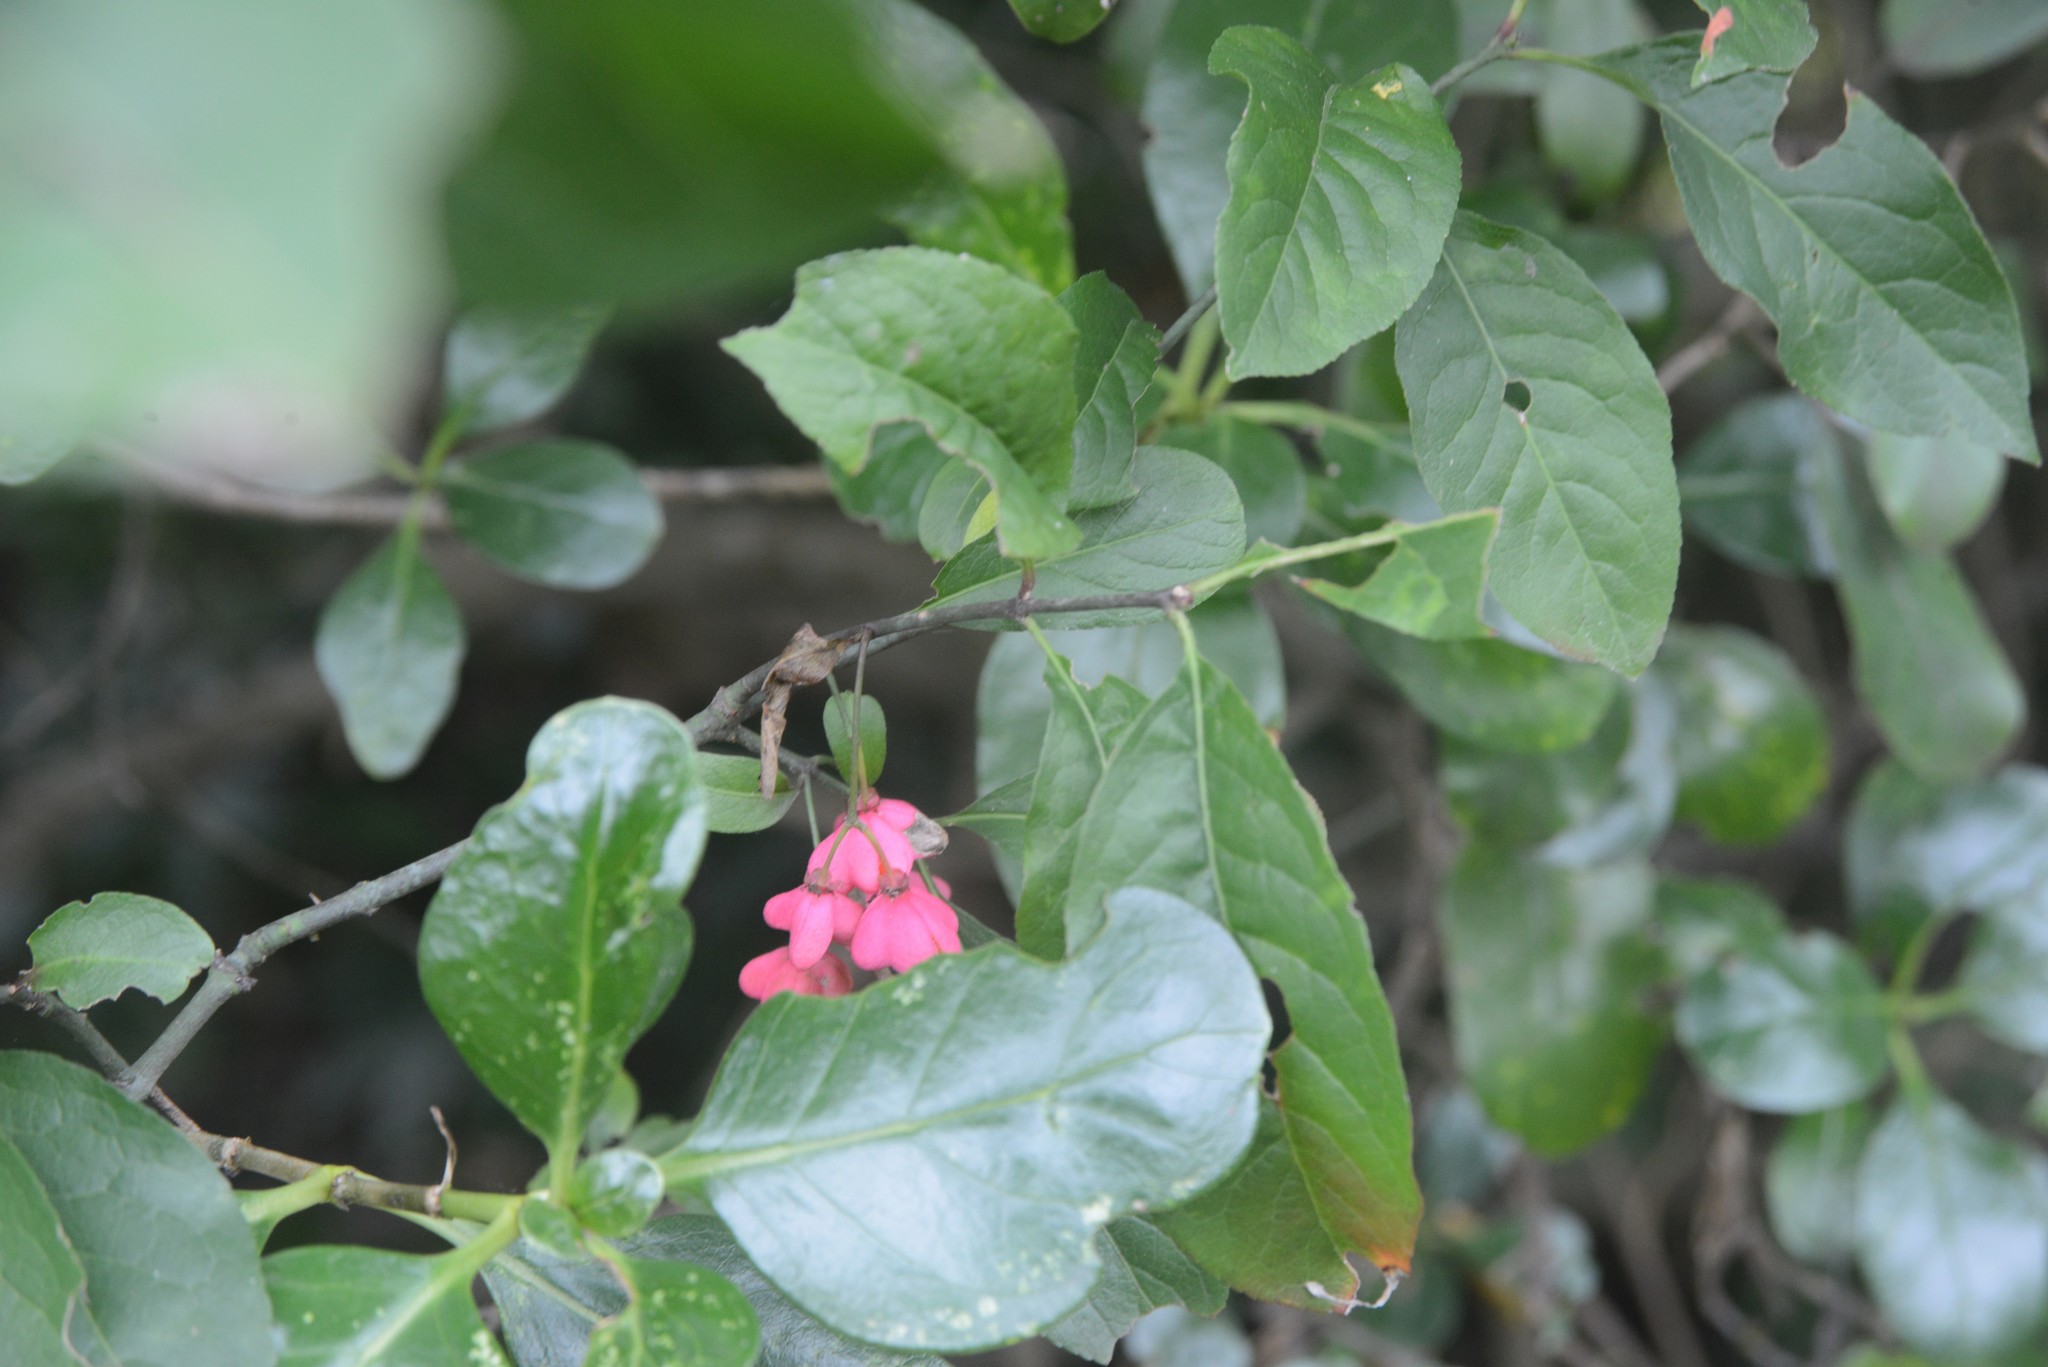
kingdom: Plantae
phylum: Tracheophyta
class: Magnoliopsida
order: Celastrales
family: Celastraceae
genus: Euonymus
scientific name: Euonymus europaeus
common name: Spindle
